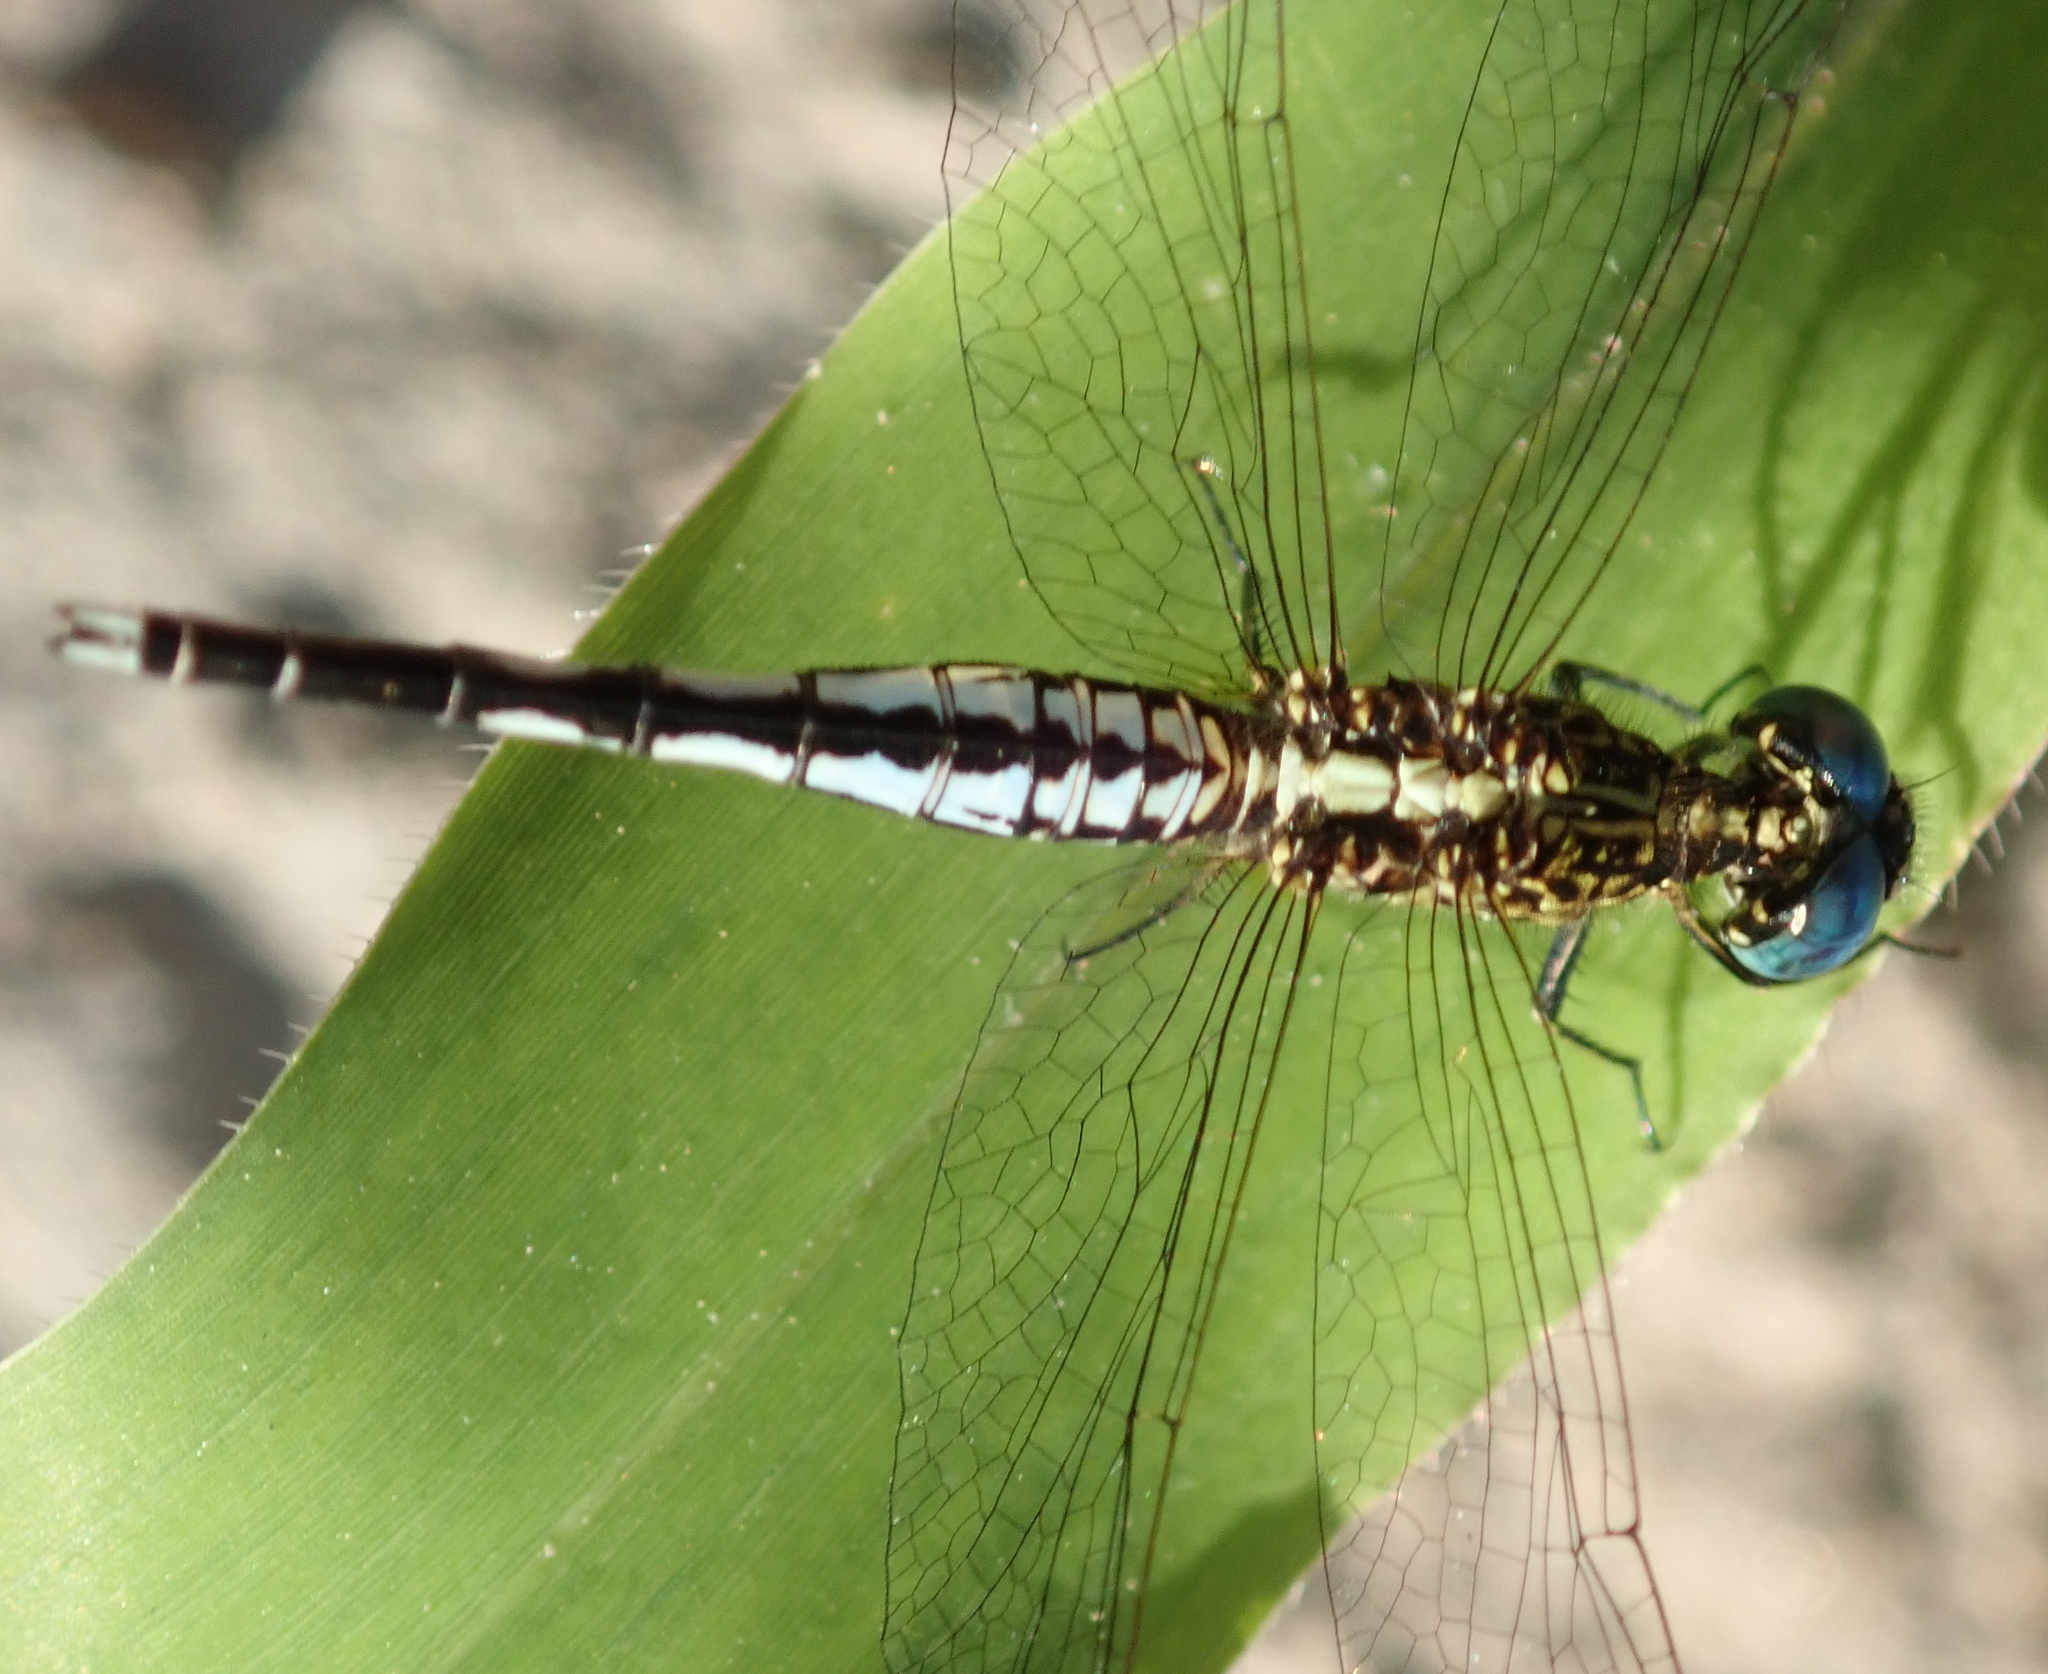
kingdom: Animalia
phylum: Arthropoda
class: Insecta
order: Odonata
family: Libellulidae
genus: Acisoma
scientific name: Acisoma inflatum
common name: Stout pintail
